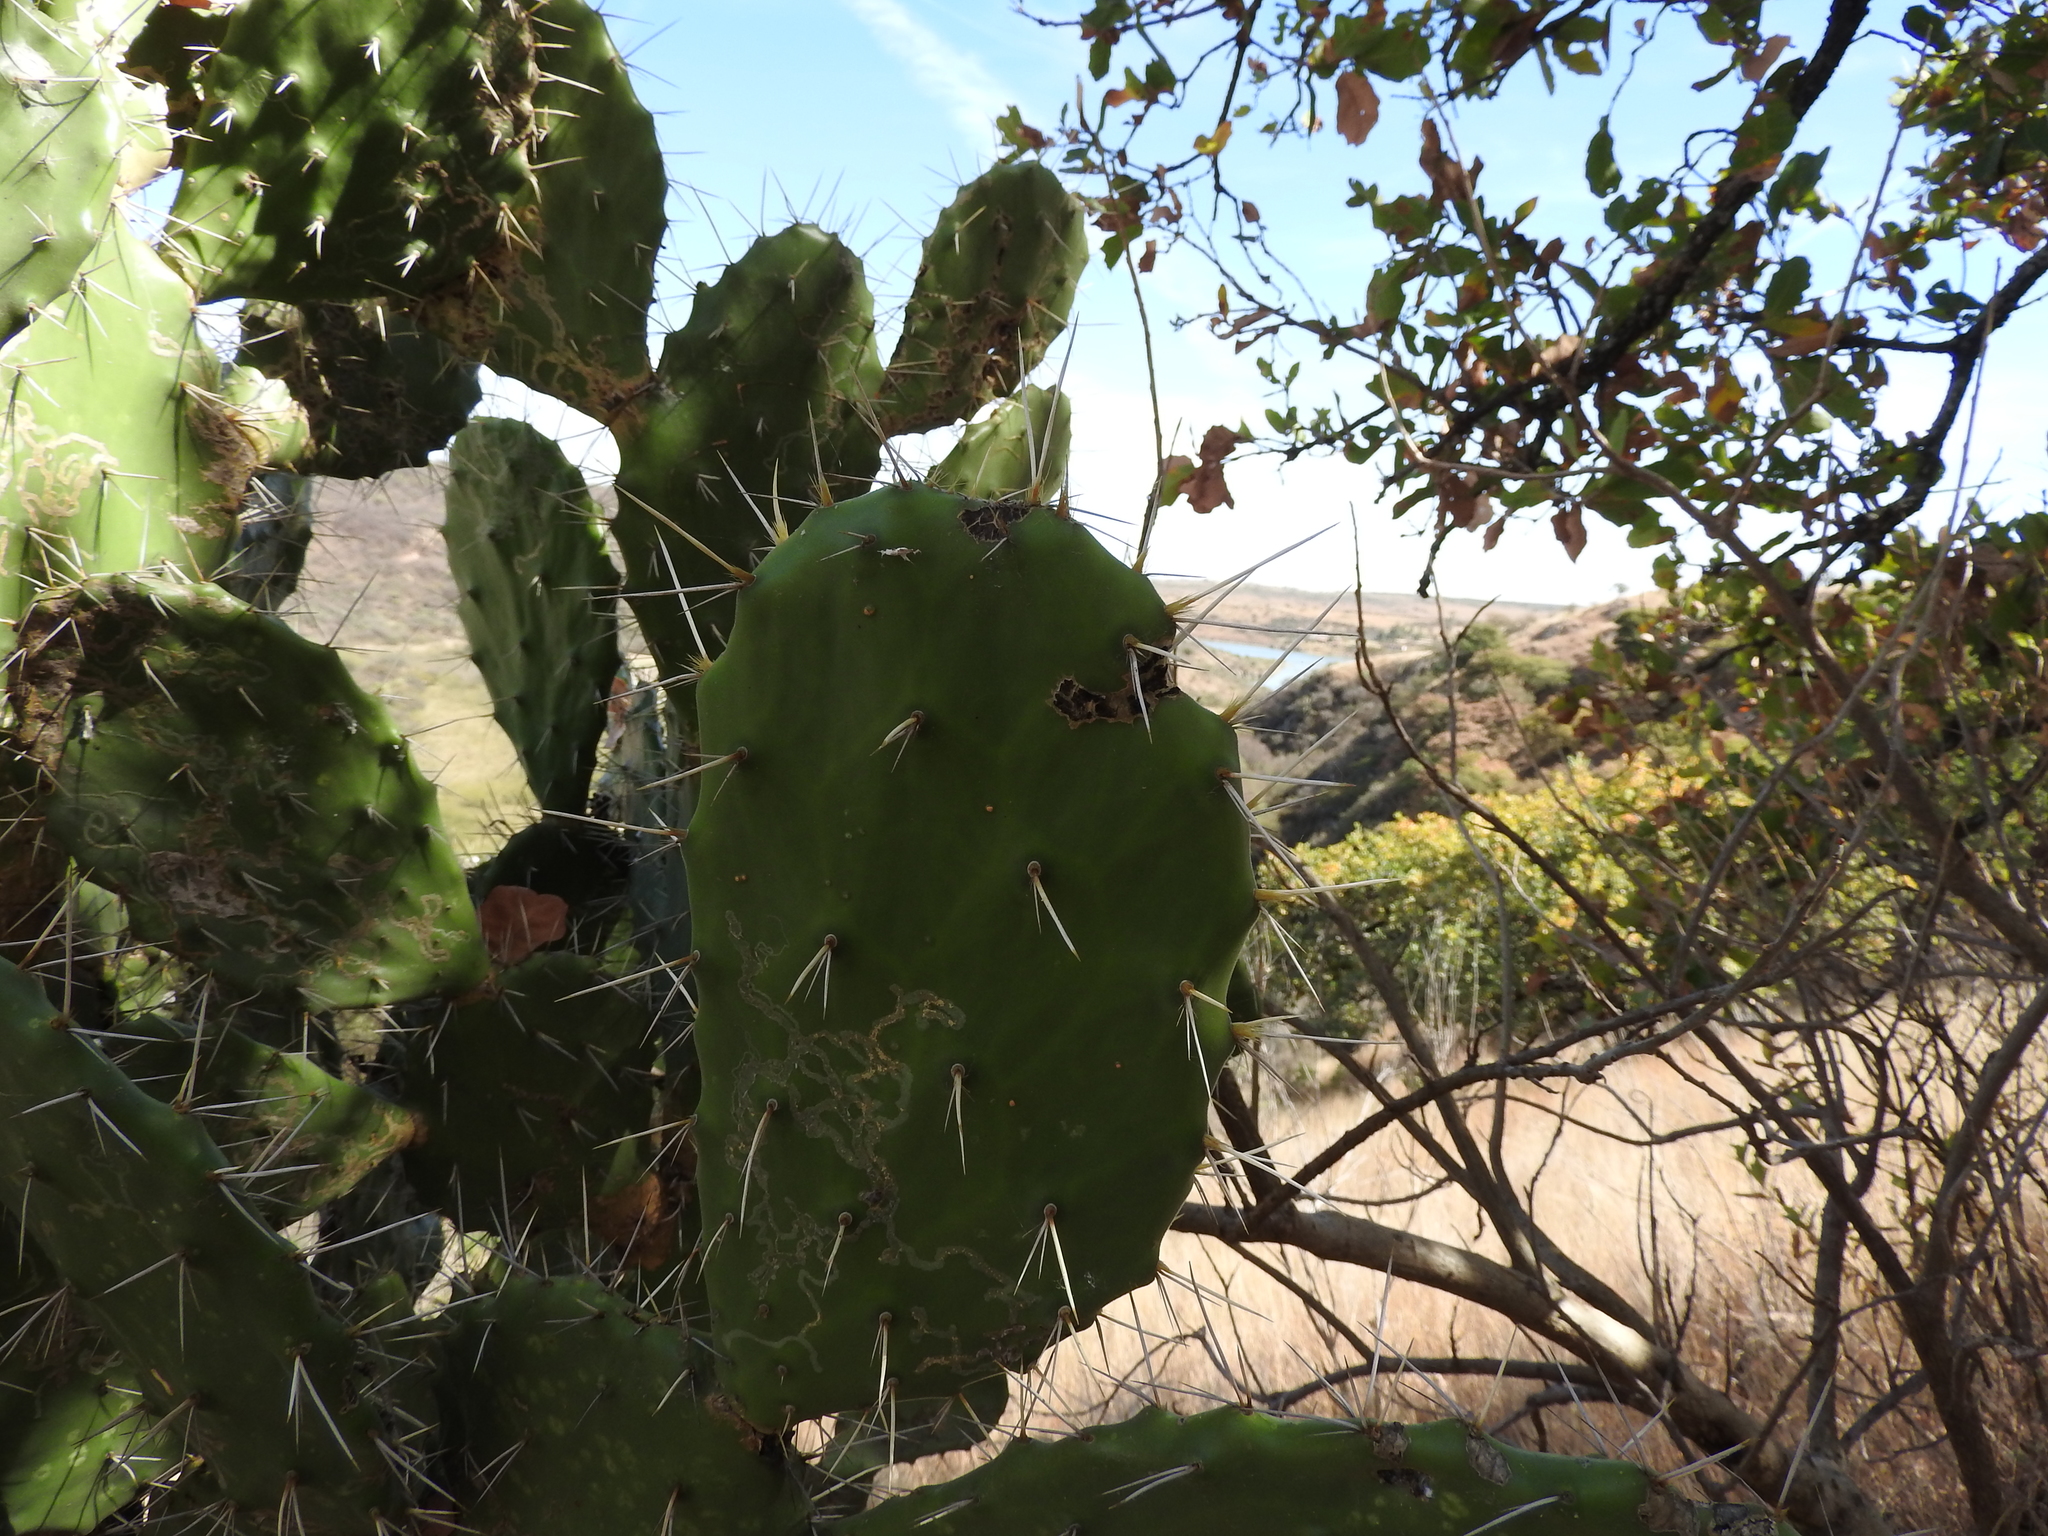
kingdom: Plantae
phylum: Tracheophyta
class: Magnoliopsida
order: Caryophyllales
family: Cactaceae
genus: Opuntia
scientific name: Opuntia tomentosa
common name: Woollyjoint pricklypear
